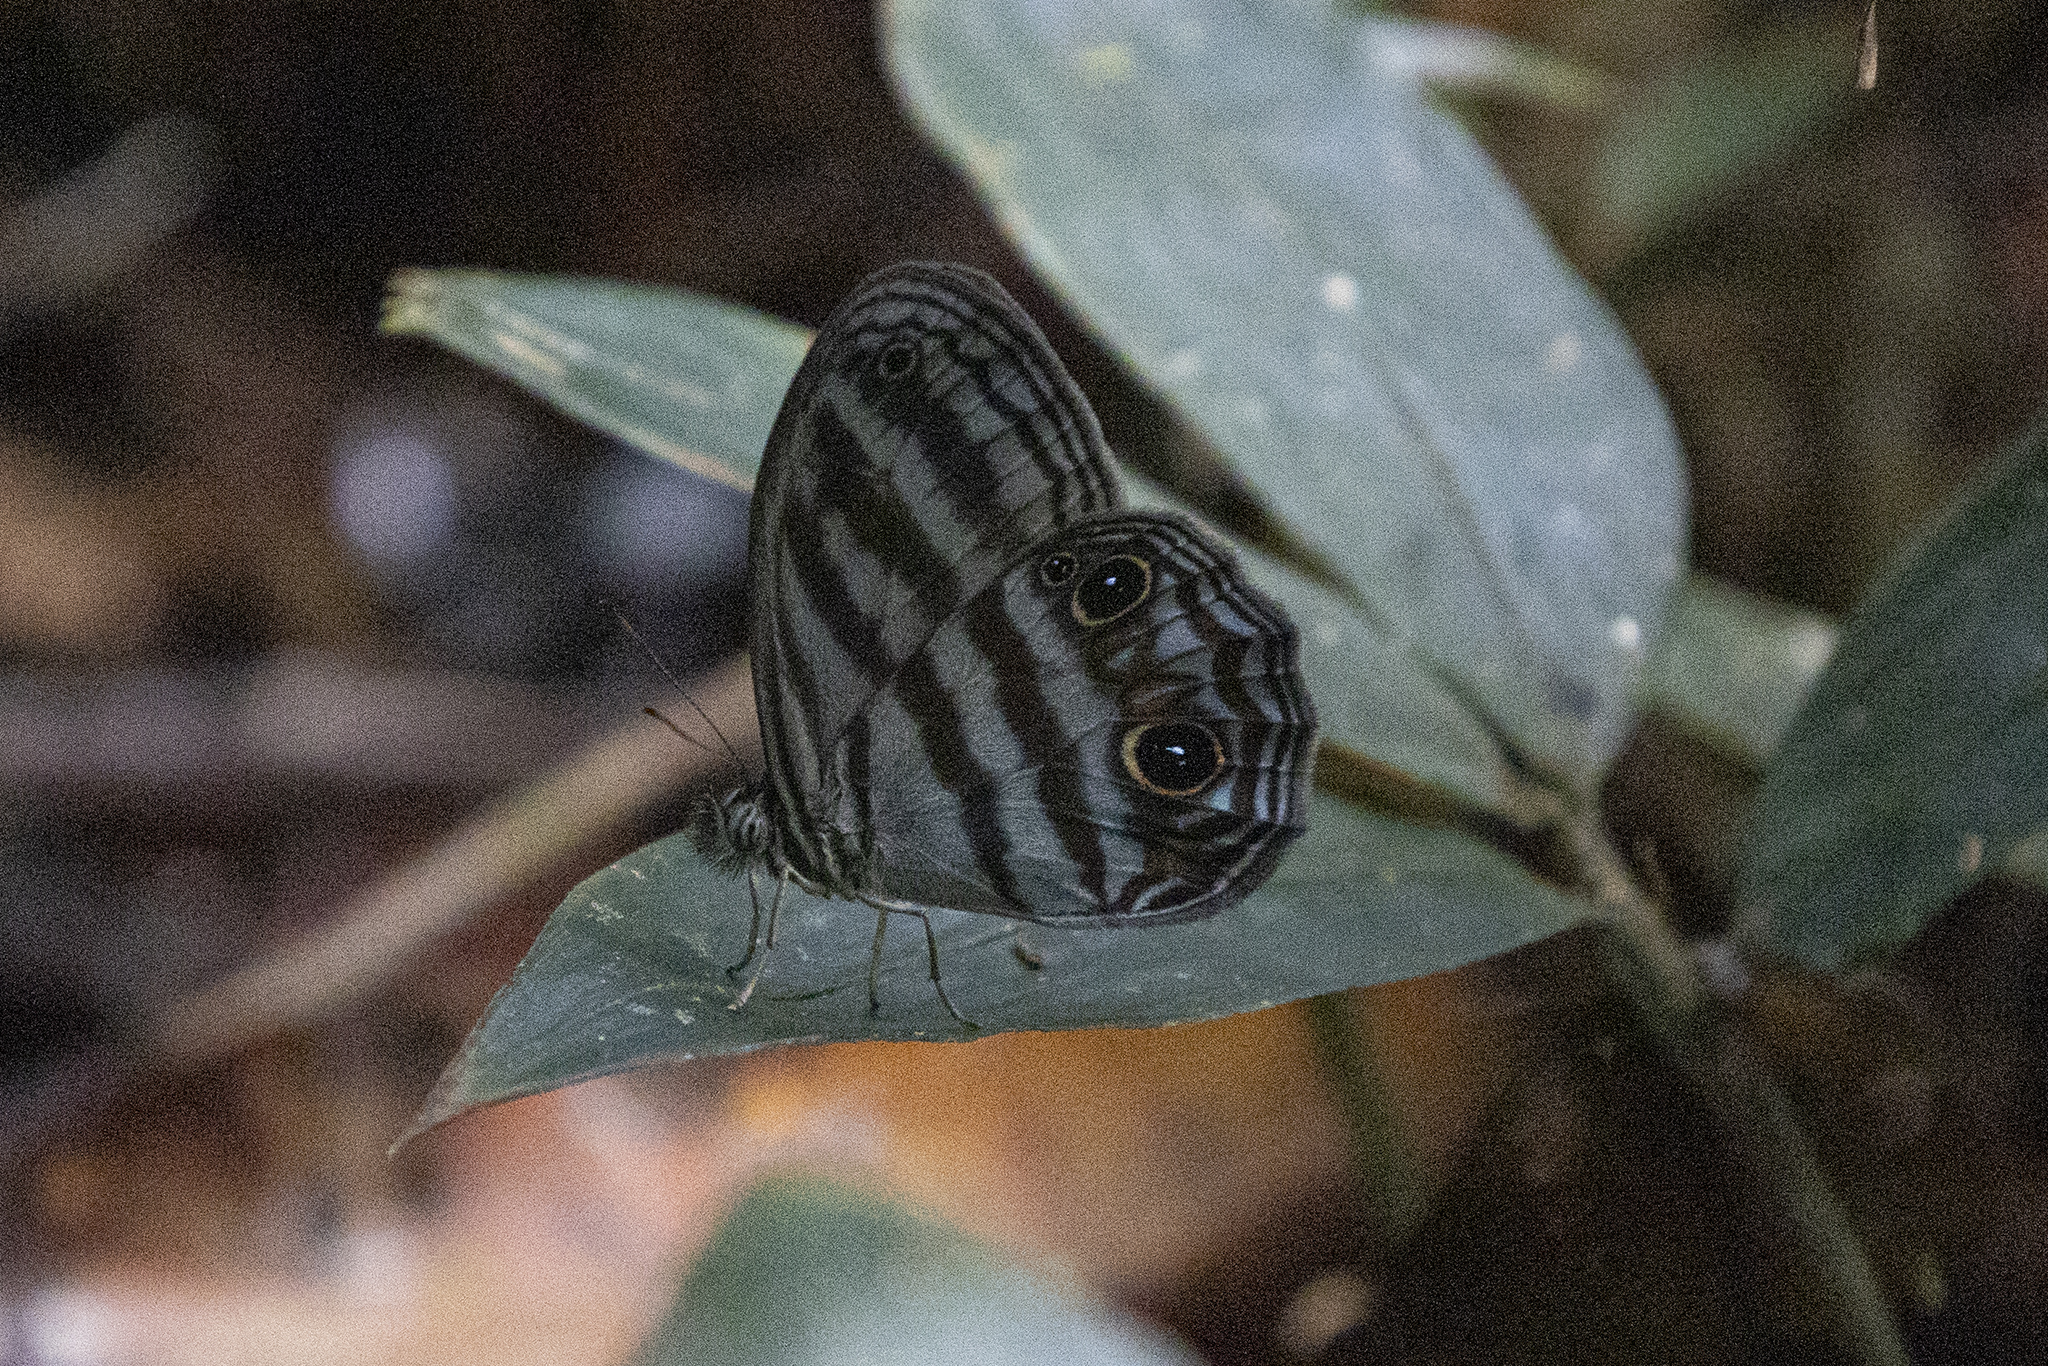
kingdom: Animalia
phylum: Arthropoda
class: Insecta
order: Lepidoptera
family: Nymphalidae
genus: Scriptor
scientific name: Scriptor sphenophorus
